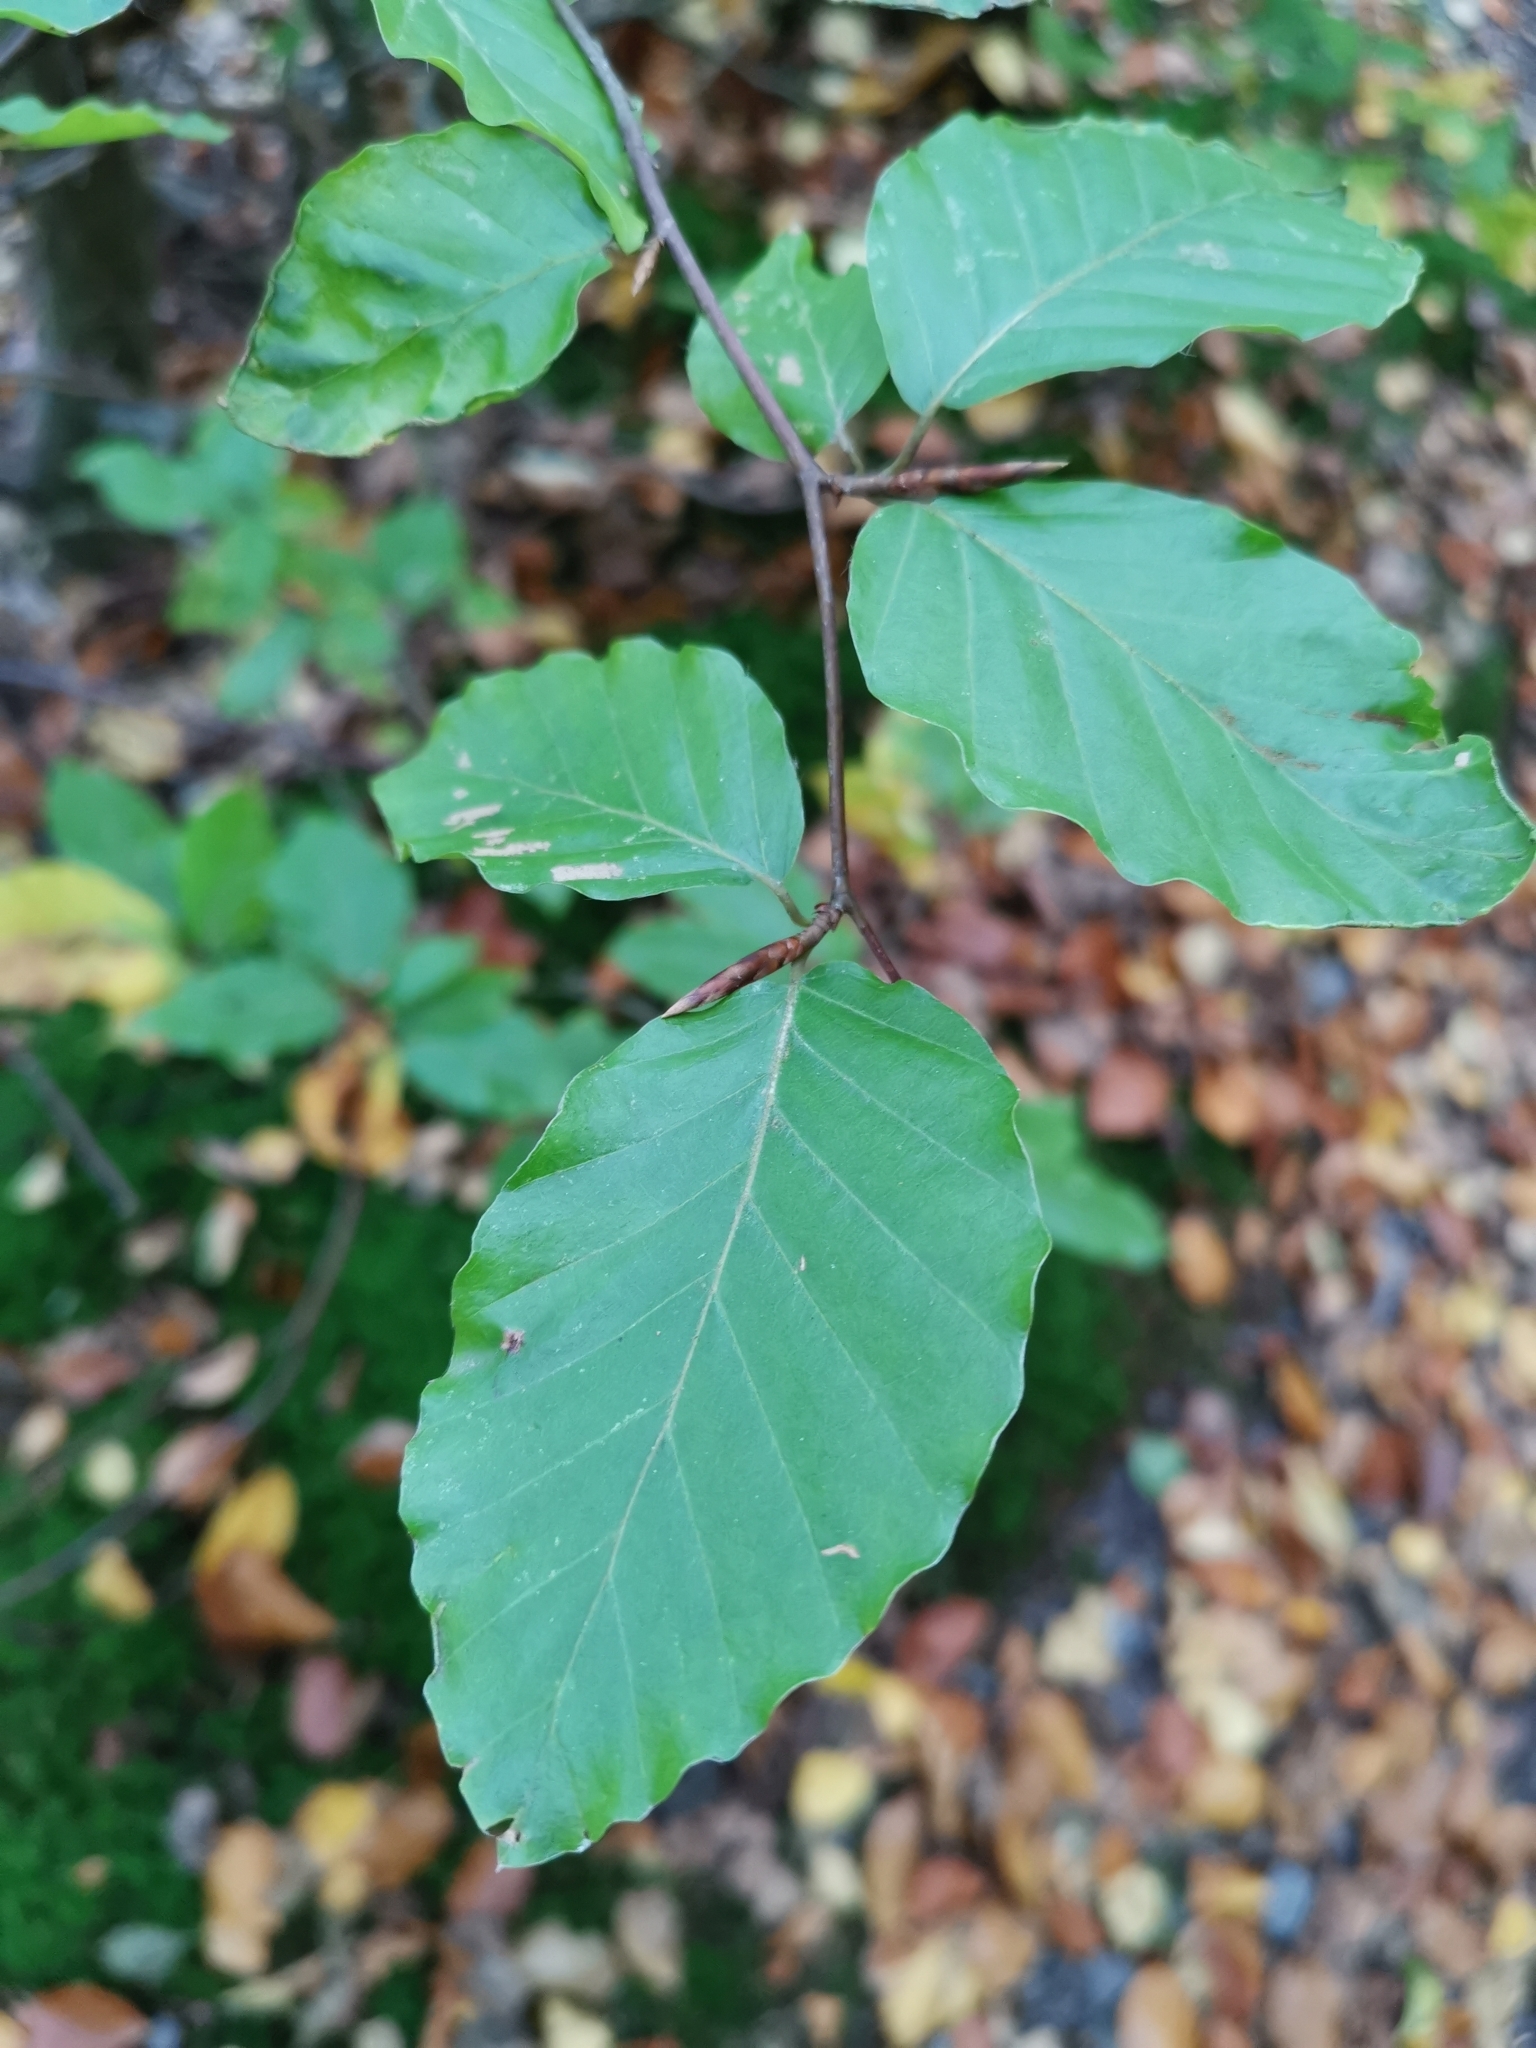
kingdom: Plantae
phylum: Tracheophyta
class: Magnoliopsida
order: Fagales
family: Fagaceae
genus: Fagus
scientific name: Fagus sylvatica
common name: Beech
